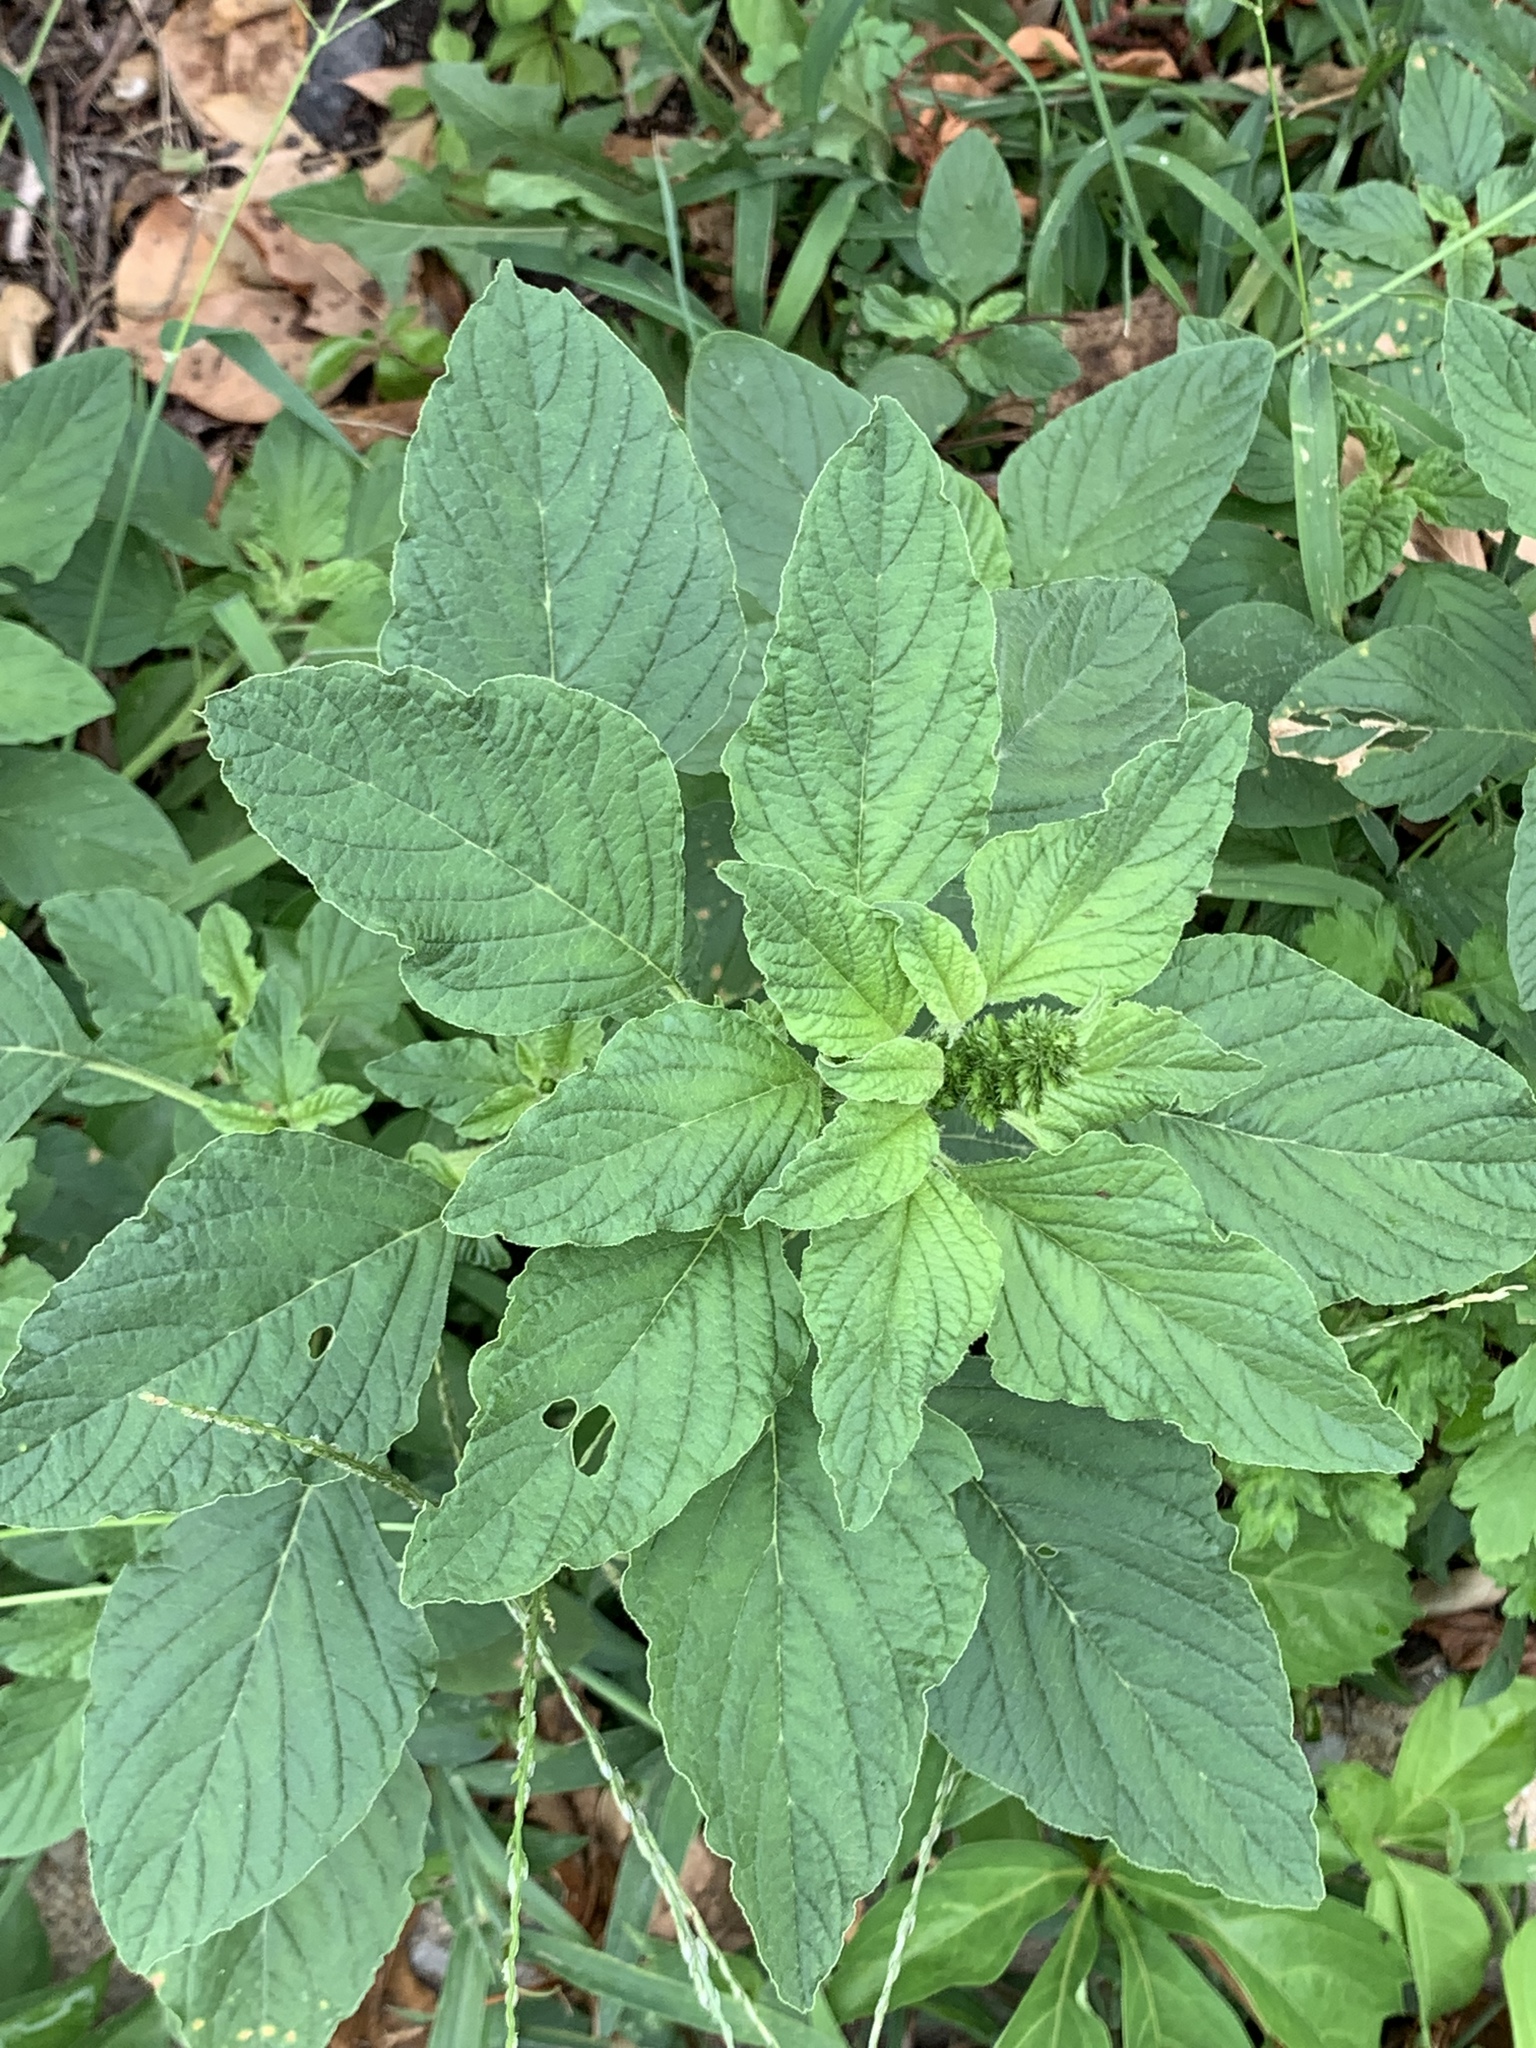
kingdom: Plantae
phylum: Tracheophyta
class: Magnoliopsida
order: Caryophyllales
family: Amaranthaceae
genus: Amaranthus
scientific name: Amaranthus retroflexus
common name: Redroot amaranth
